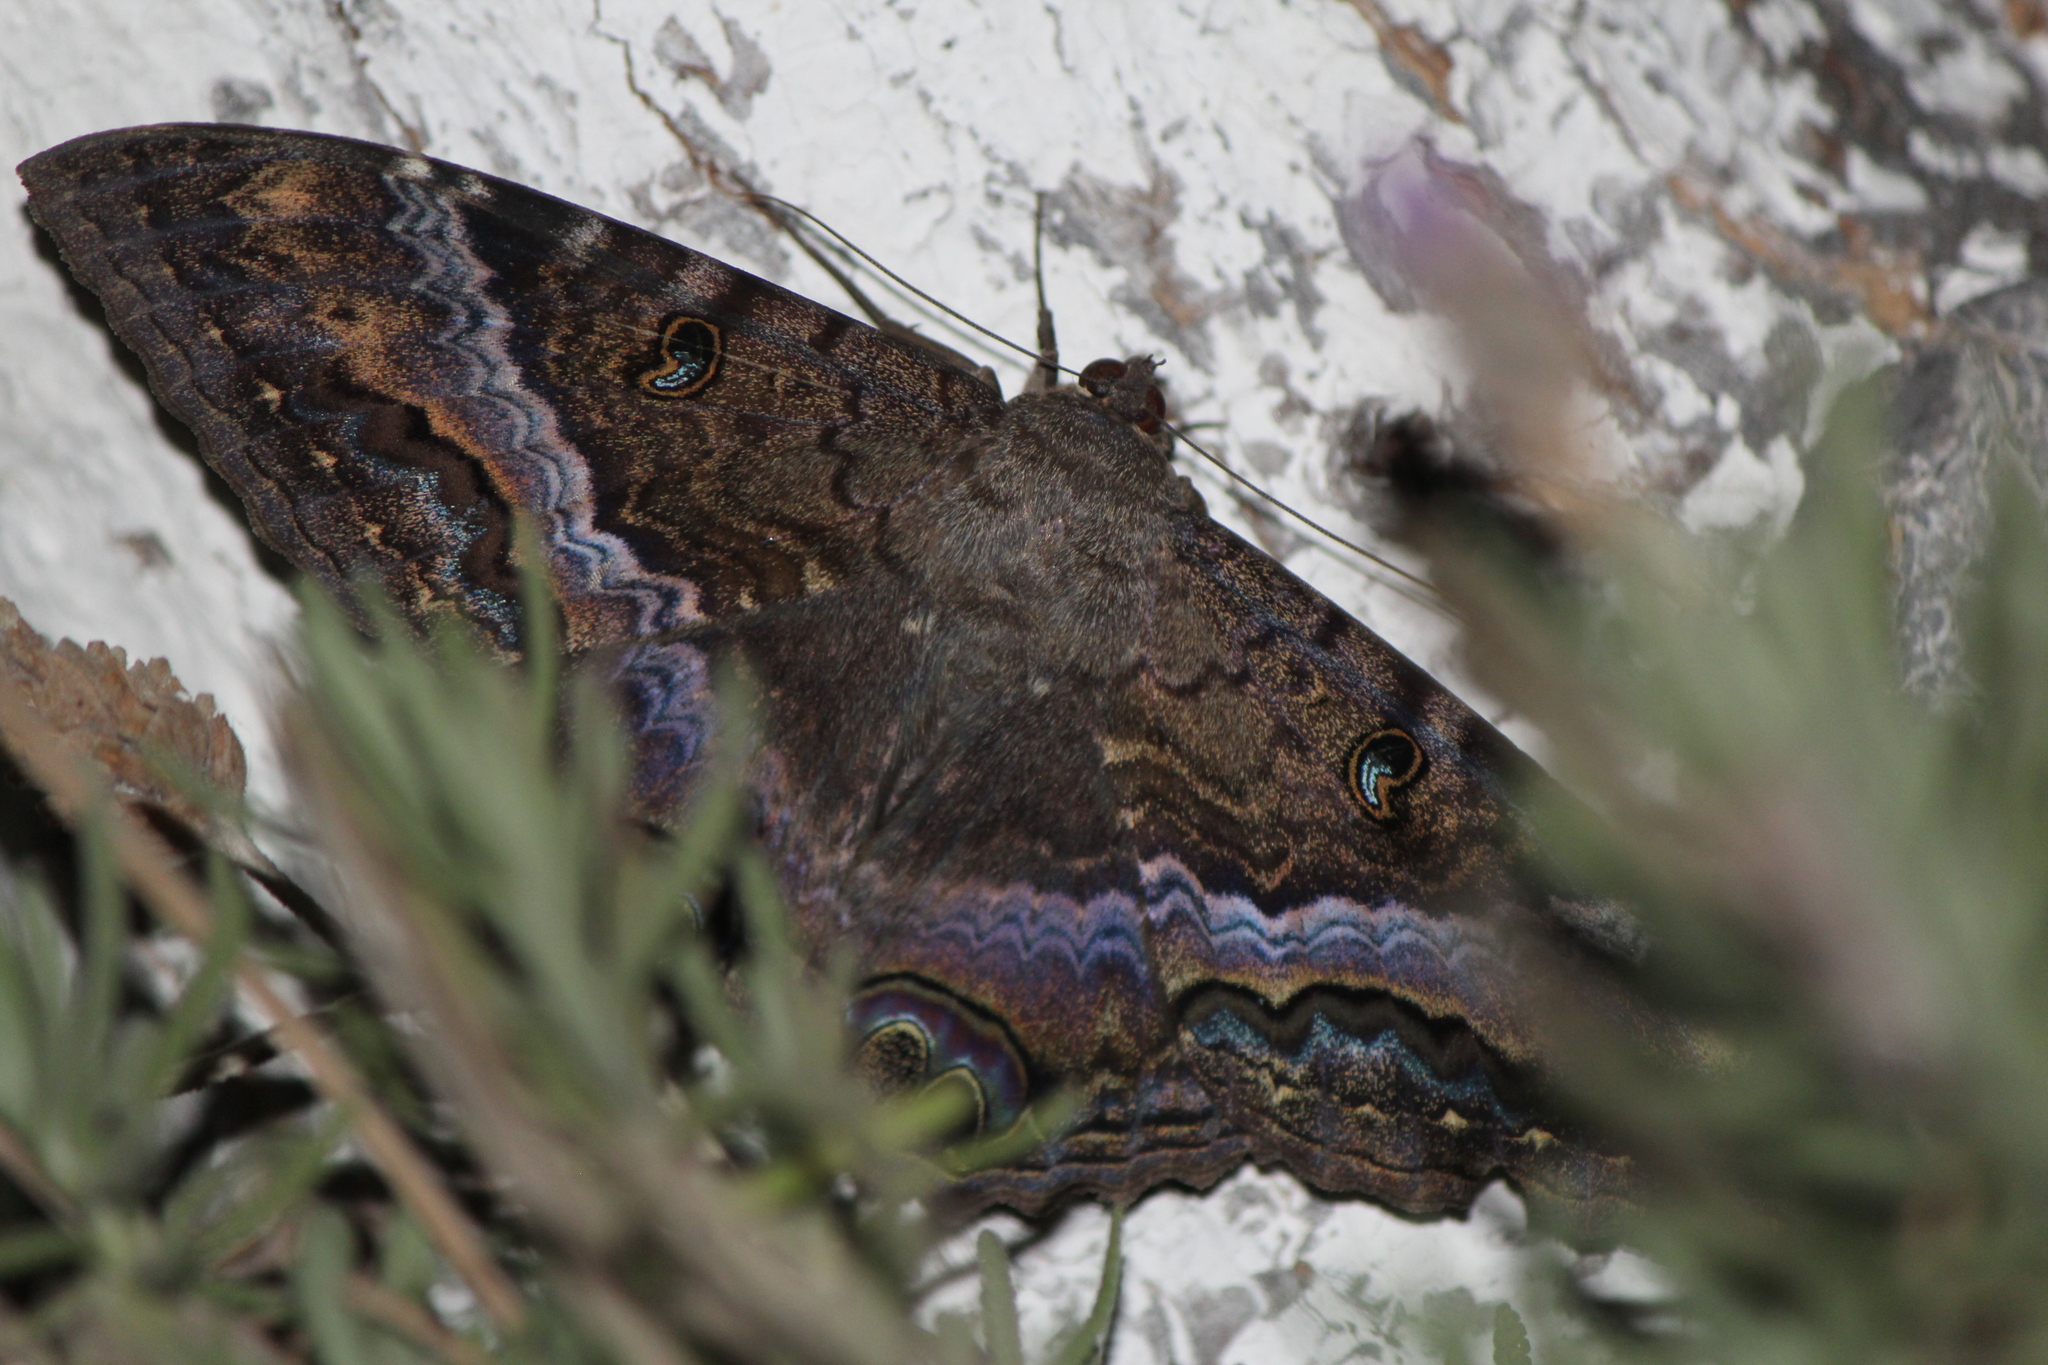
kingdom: Animalia
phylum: Arthropoda
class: Insecta
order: Lepidoptera
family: Erebidae
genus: Ascalapha
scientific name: Ascalapha odorata
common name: Black witch
